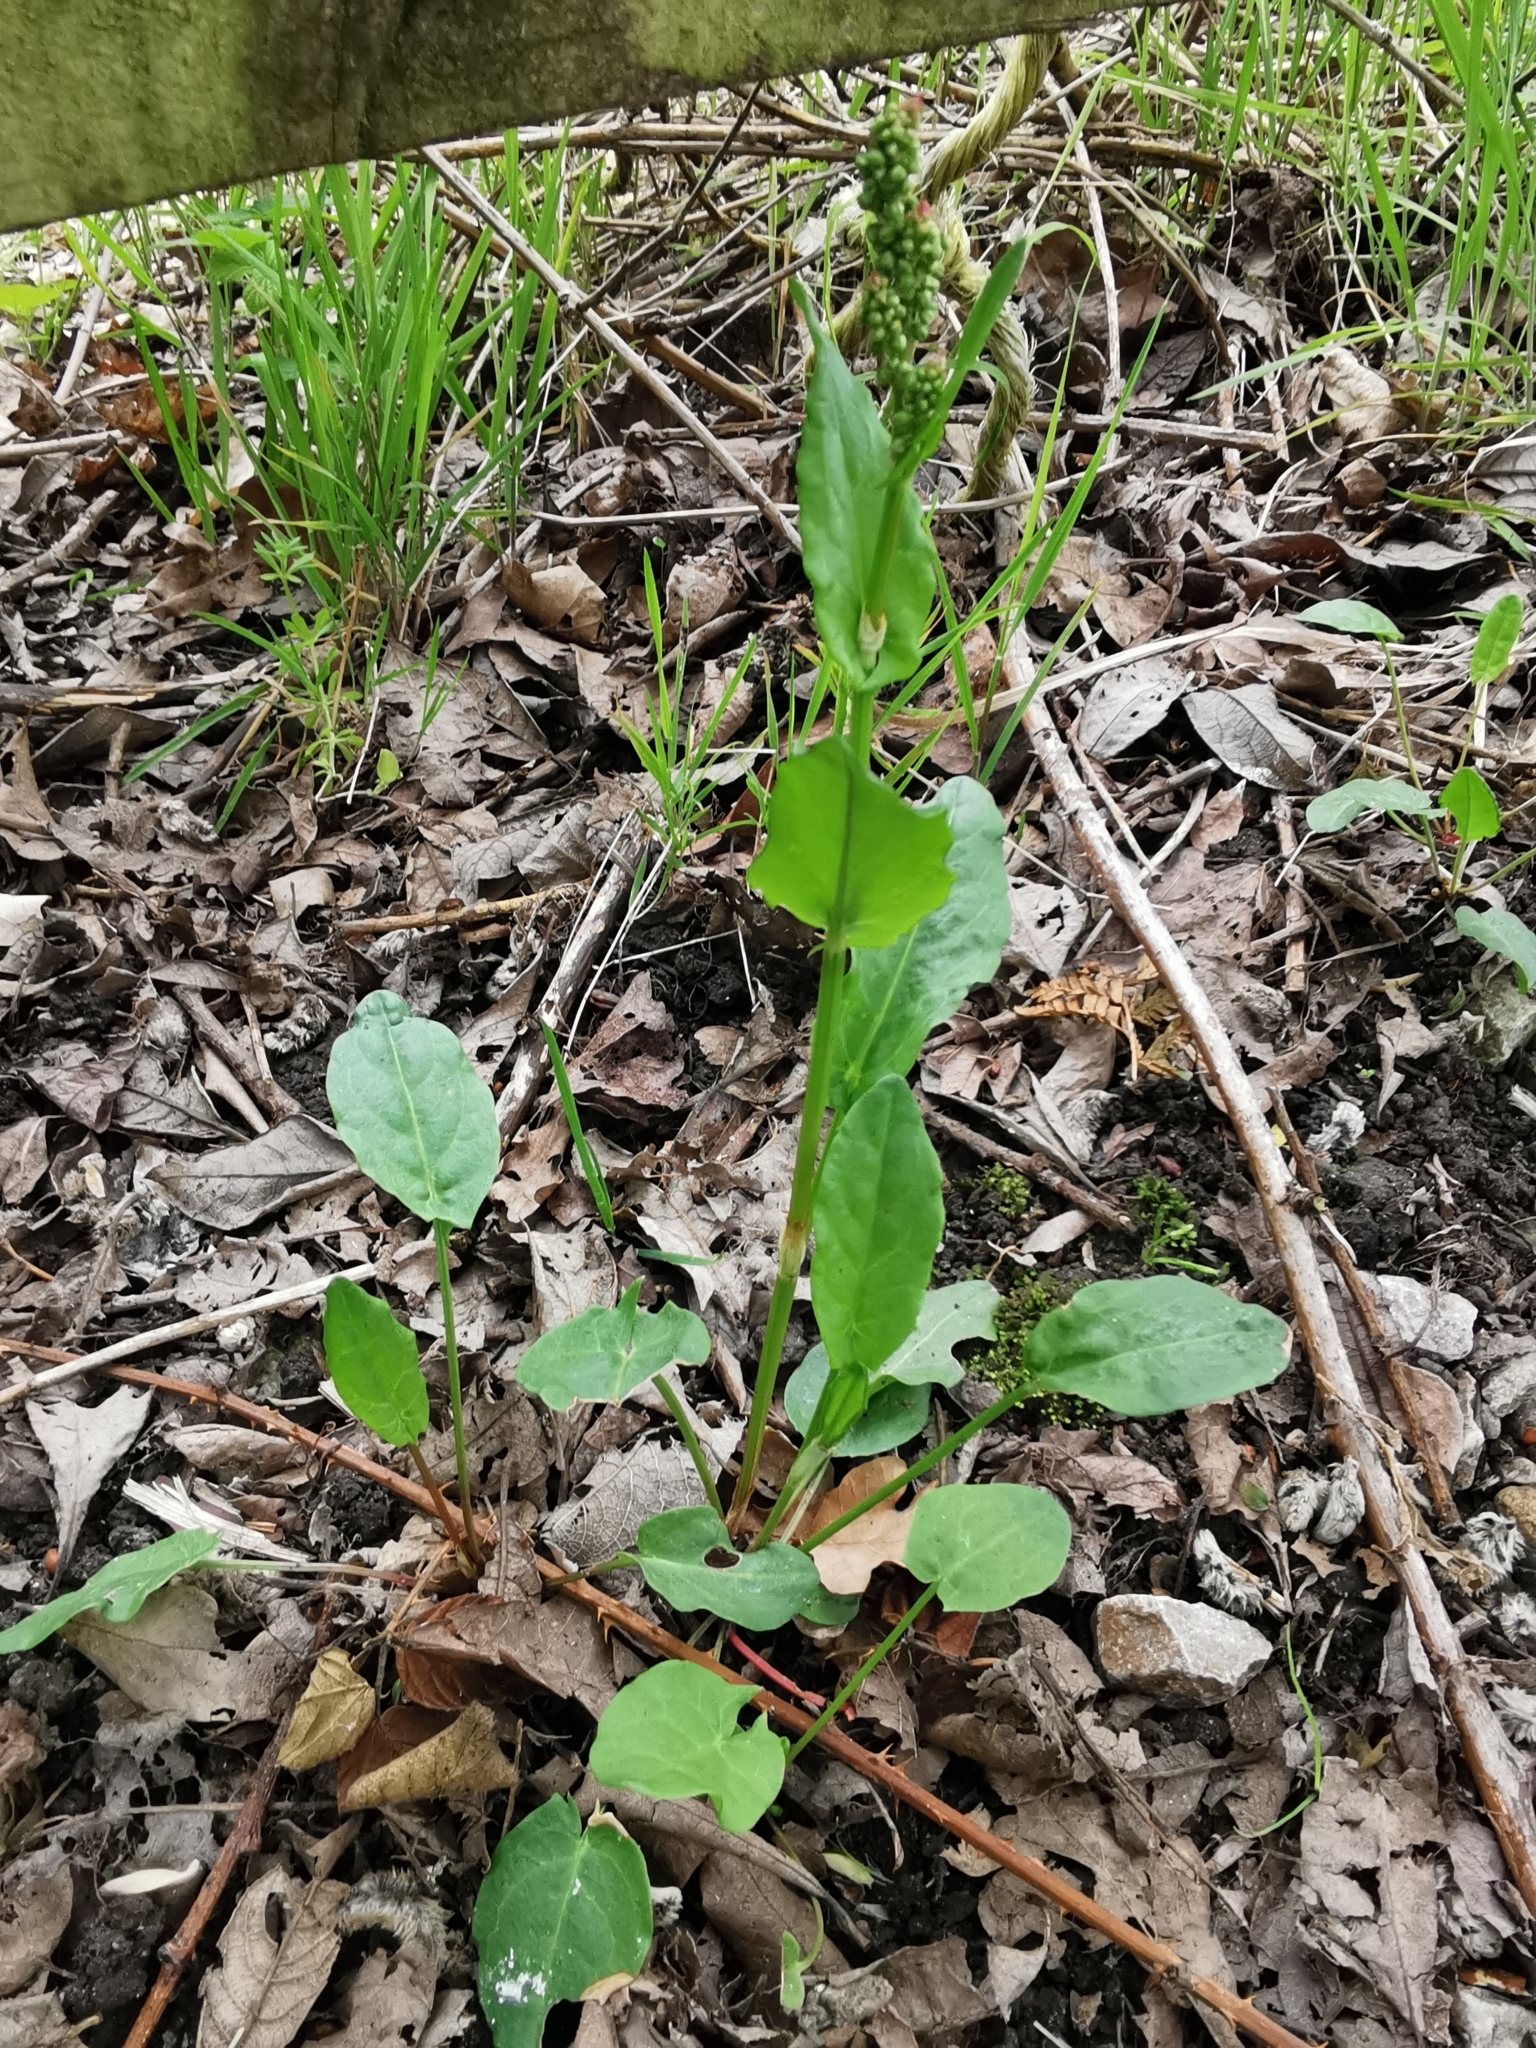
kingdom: Plantae
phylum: Tracheophyta
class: Magnoliopsida
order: Caryophyllales
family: Polygonaceae
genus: Rumex
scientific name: Rumex acetosa
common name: Garden sorrel
